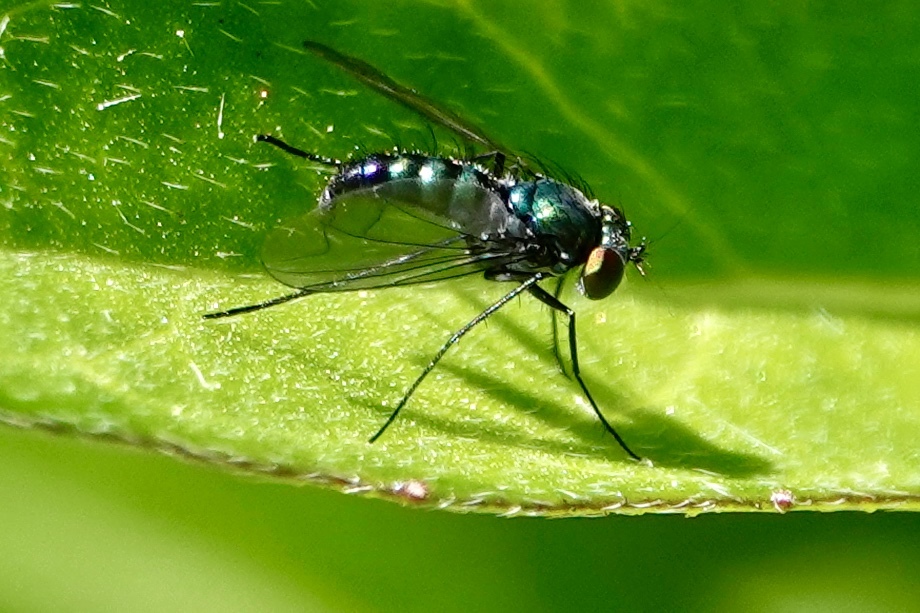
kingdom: Animalia
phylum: Arthropoda
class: Insecta
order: Diptera
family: Dolichopodidae
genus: Condylostylus
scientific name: Condylostylus patibulatus
